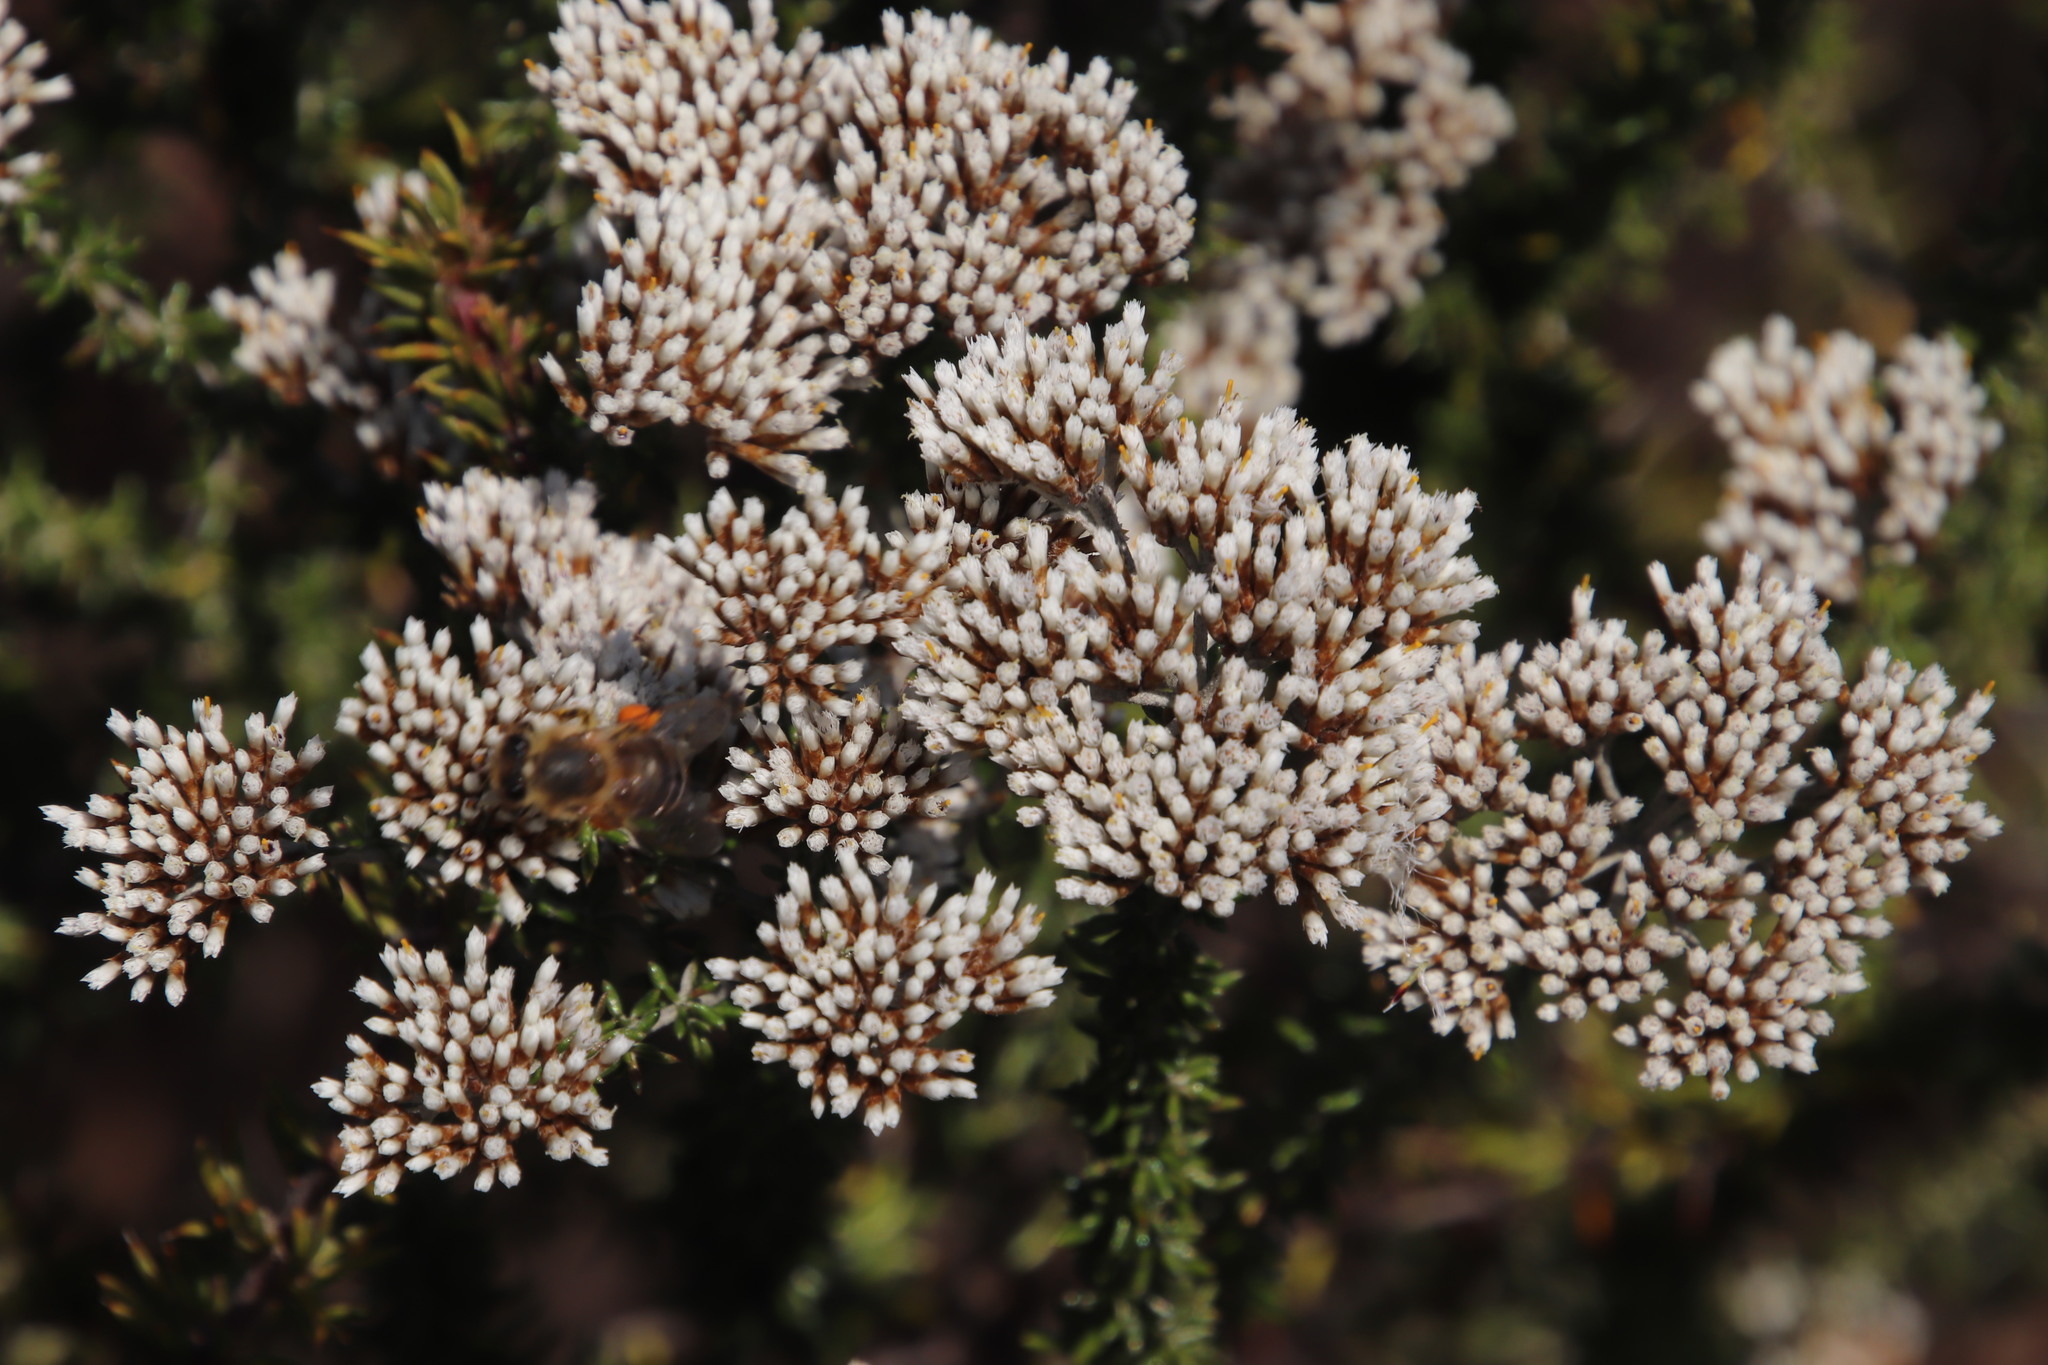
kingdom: Plantae
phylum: Tracheophyta
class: Magnoliopsida
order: Asterales
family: Asteraceae
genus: Metalasia
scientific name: Metalasia densa
